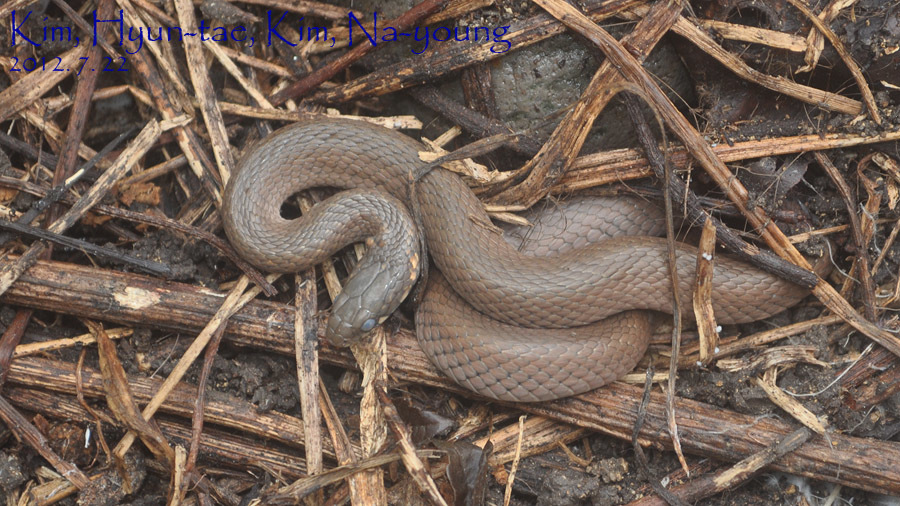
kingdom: Animalia
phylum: Chordata
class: Squamata
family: Colubridae
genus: Hebius
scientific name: Hebius vibakari
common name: Japanese keelback
